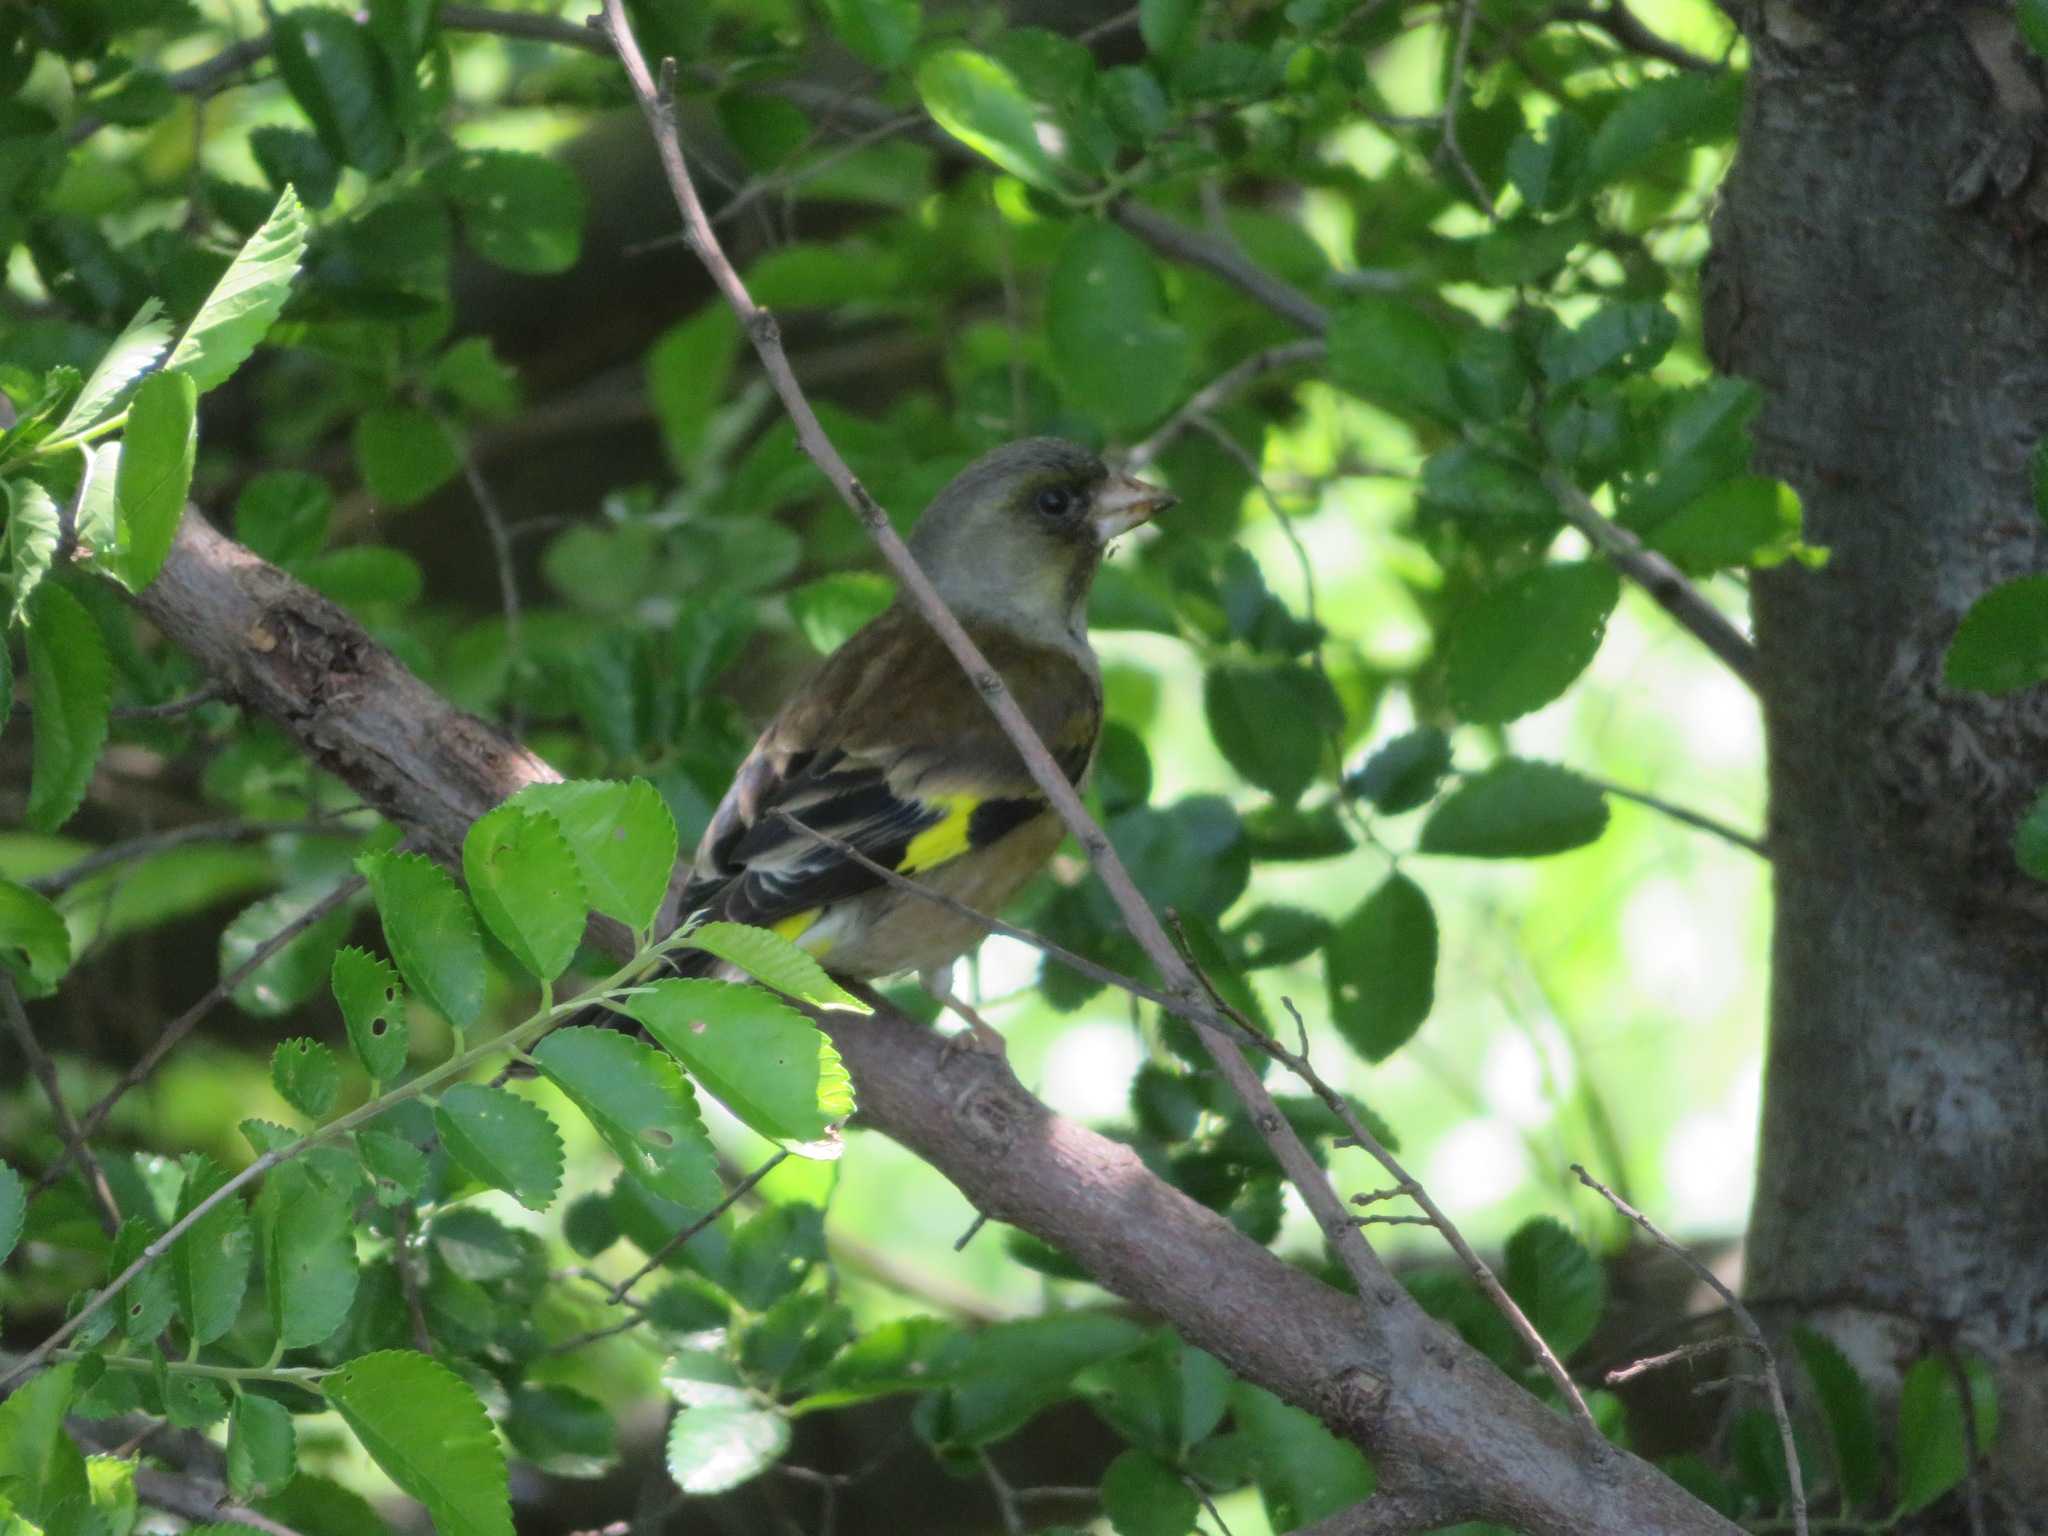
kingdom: Plantae
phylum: Tracheophyta
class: Liliopsida
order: Poales
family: Poaceae
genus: Chloris
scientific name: Chloris sinica
